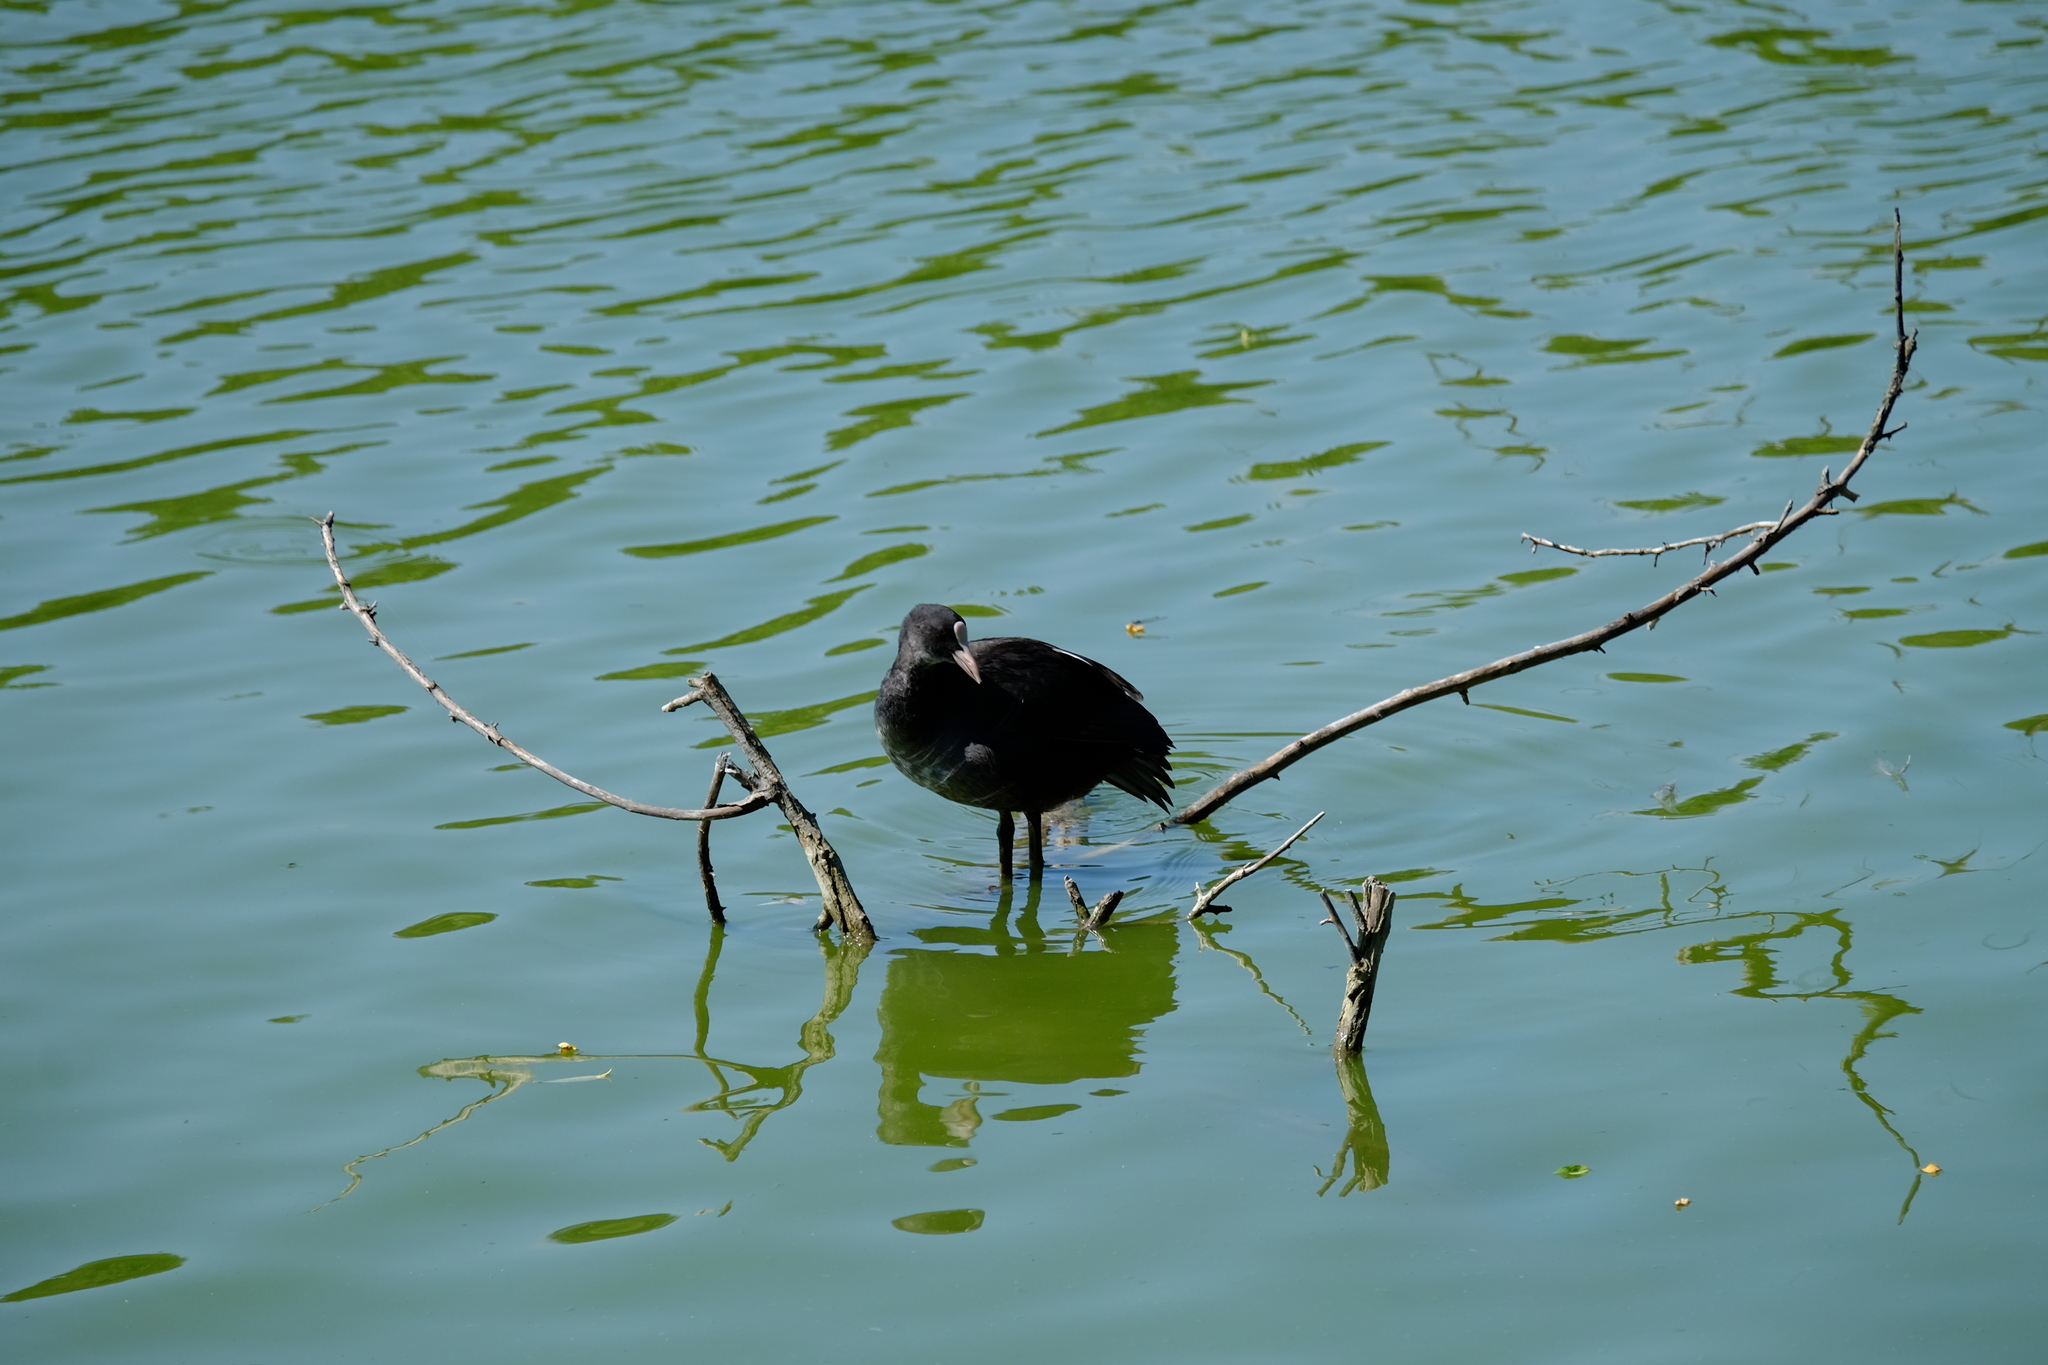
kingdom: Animalia
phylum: Chordata
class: Aves
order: Gruiformes
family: Rallidae
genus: Fulica
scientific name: Fulica atra
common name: Eurasian coot
